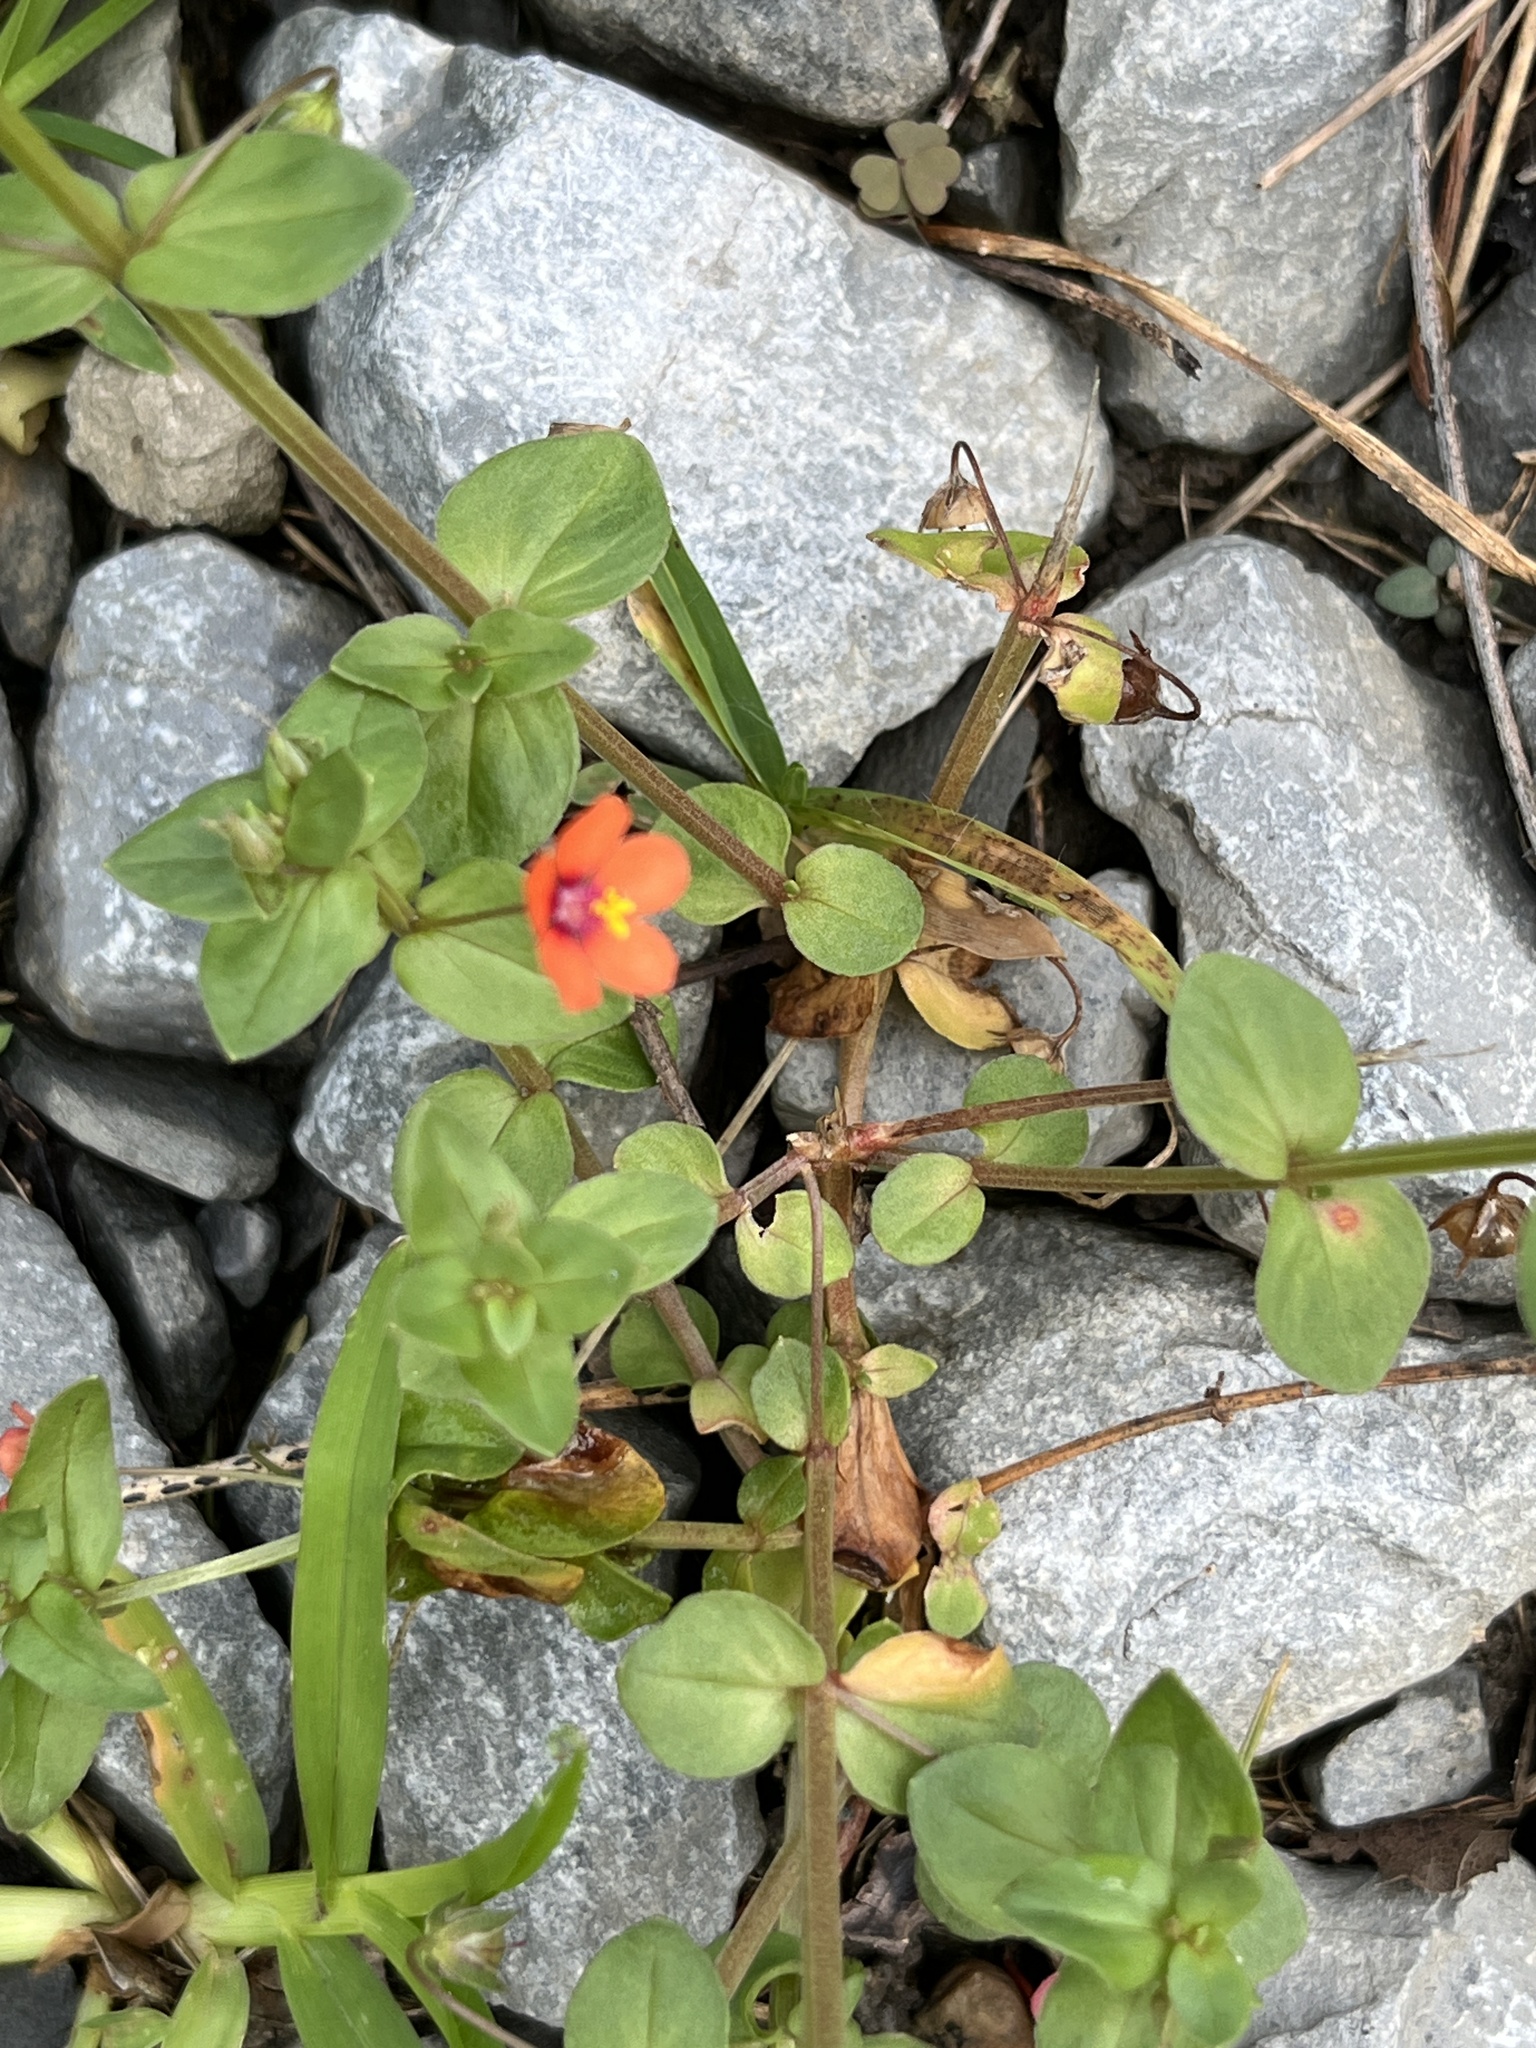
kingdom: Plantae
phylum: Tracheophyta
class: Magnoliopsida
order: Ericales
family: Primulaceae
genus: Lysimachia
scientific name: Lysimachia arvensis
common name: Scarlet pimpernel
